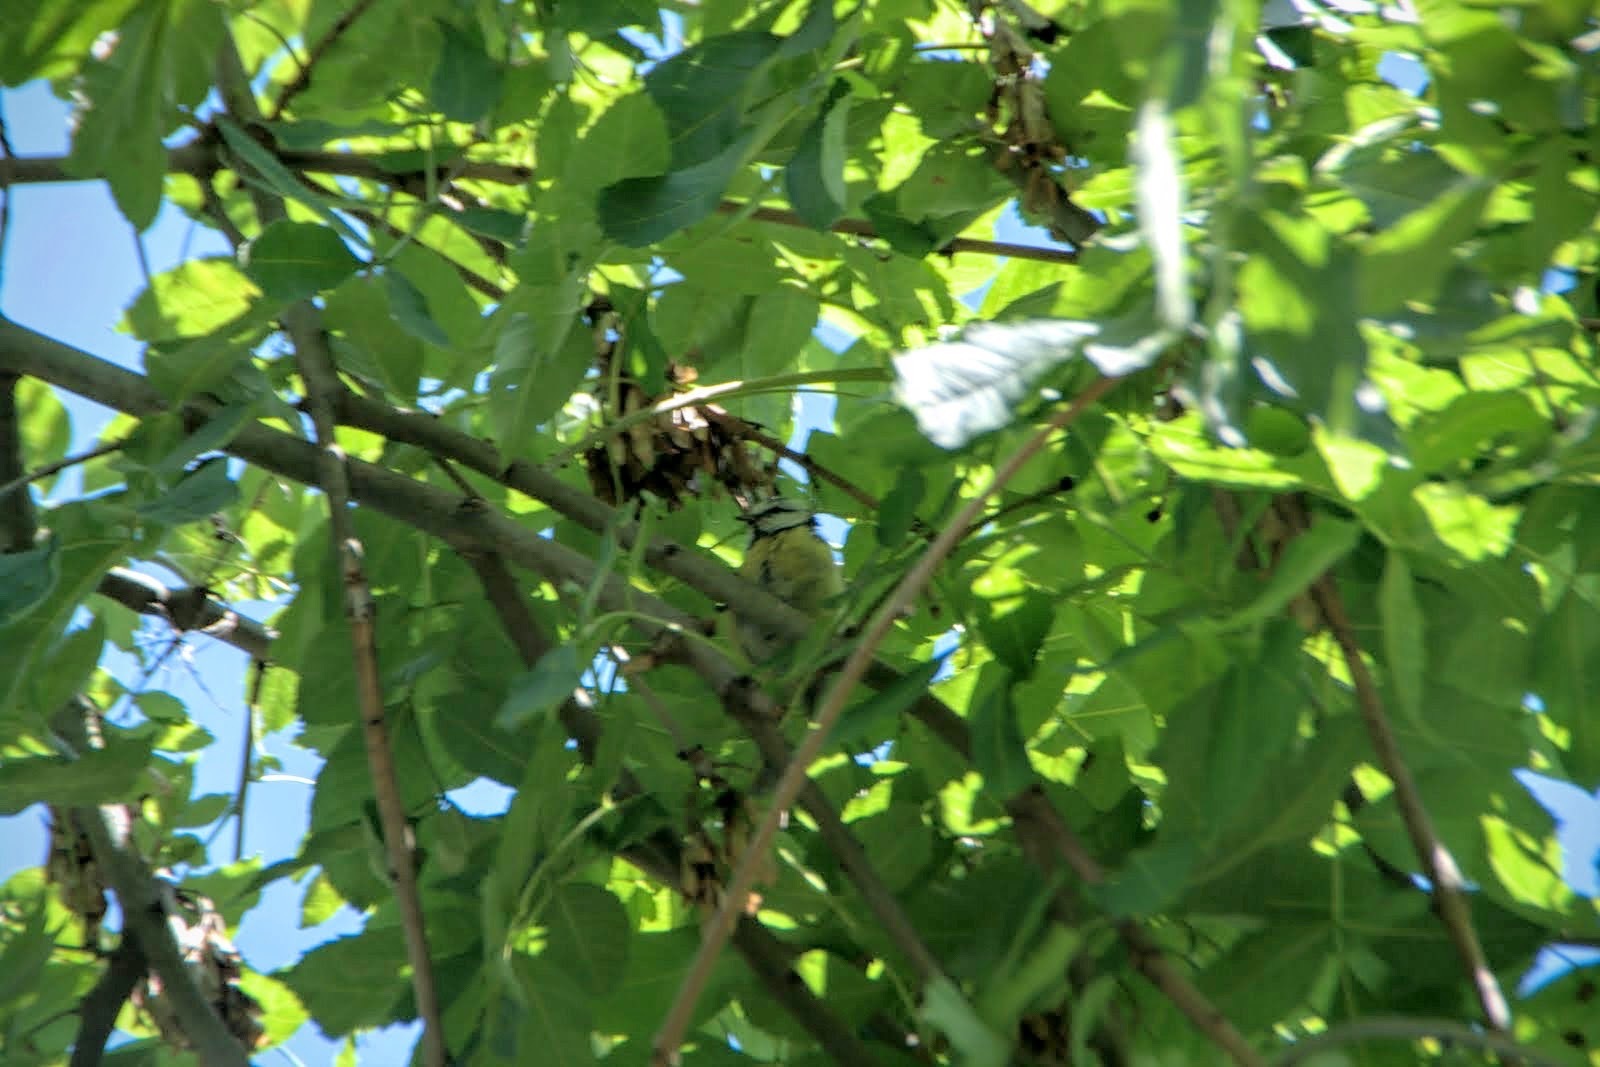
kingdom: Animalia
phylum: Chordata
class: Aves
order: Passeriformes
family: Paridae
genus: Cyanistes
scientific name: Cyanistes caeruleus
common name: Eurasian blue tit
